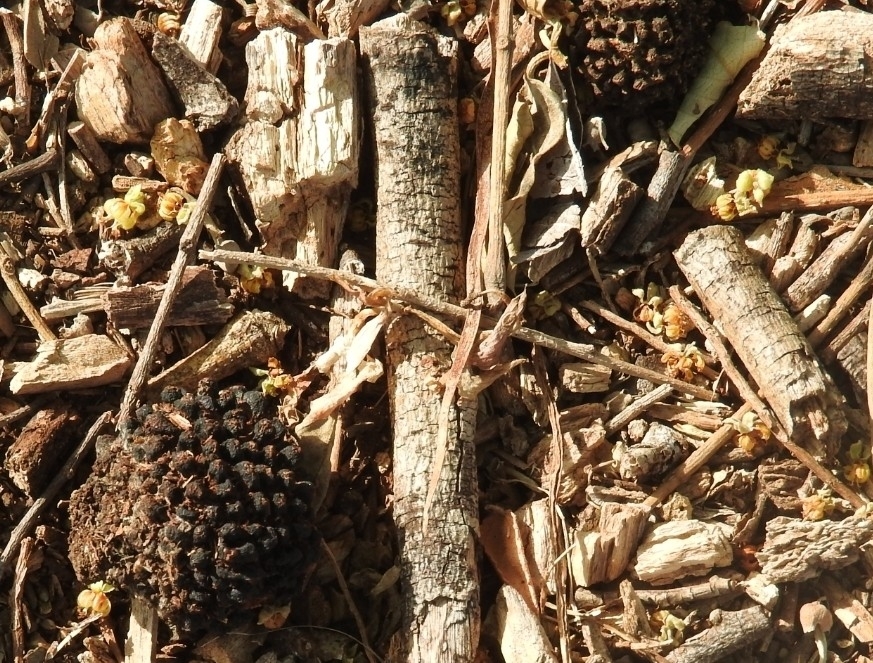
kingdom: Plantae
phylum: Tracheophyta
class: Magnoliopsida
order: Malvales
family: Malvaceae
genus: Guazuma
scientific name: Guazuma ulmifolia
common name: Bastard-cedar
